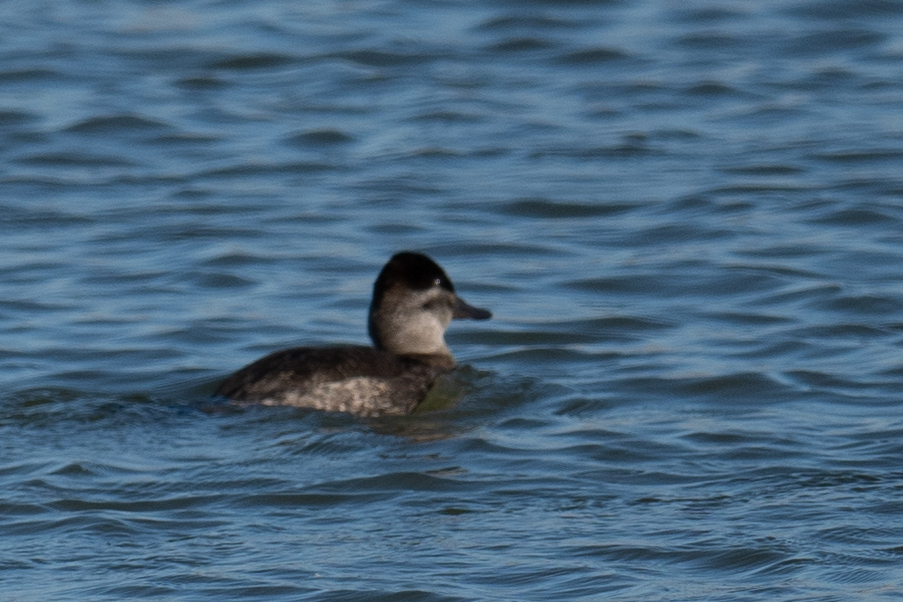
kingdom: Animalia
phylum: Chordata
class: Aves
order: Anseriformes
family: Anatidae
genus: Oxyura
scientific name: Oxyura jamaicensis
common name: Ruddy duck
